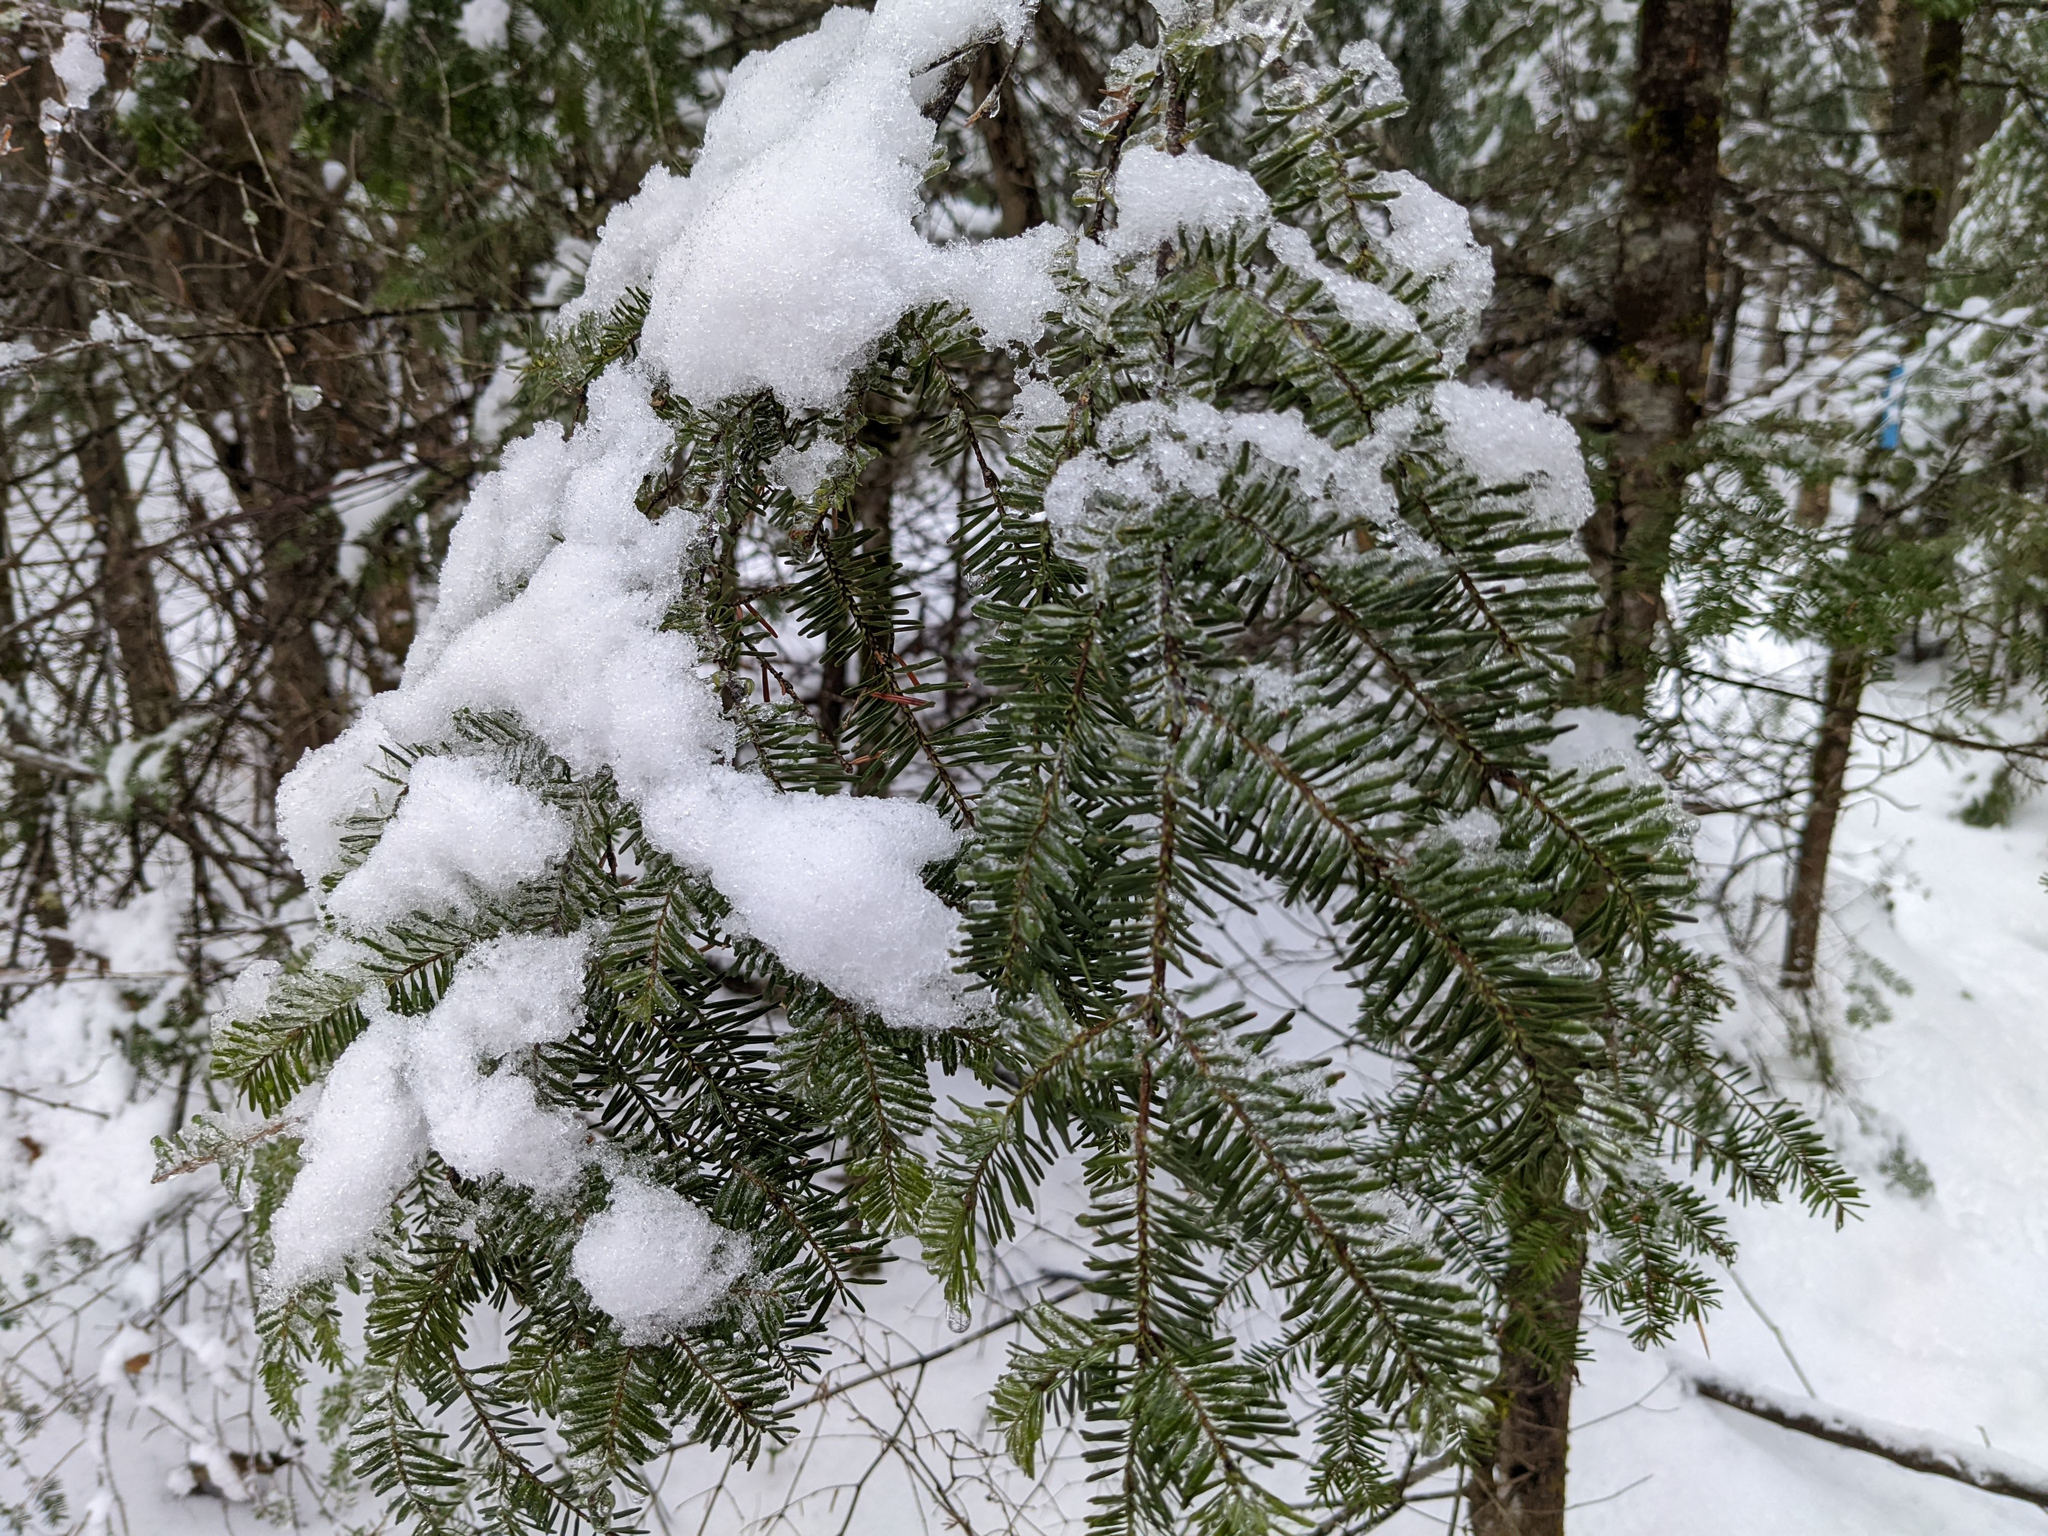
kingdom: Plantae
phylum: Tracheophyta
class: Pinopsida
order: Pinales
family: Pinaceae
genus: Abies
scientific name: Abies balsamea
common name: Balsam fir
